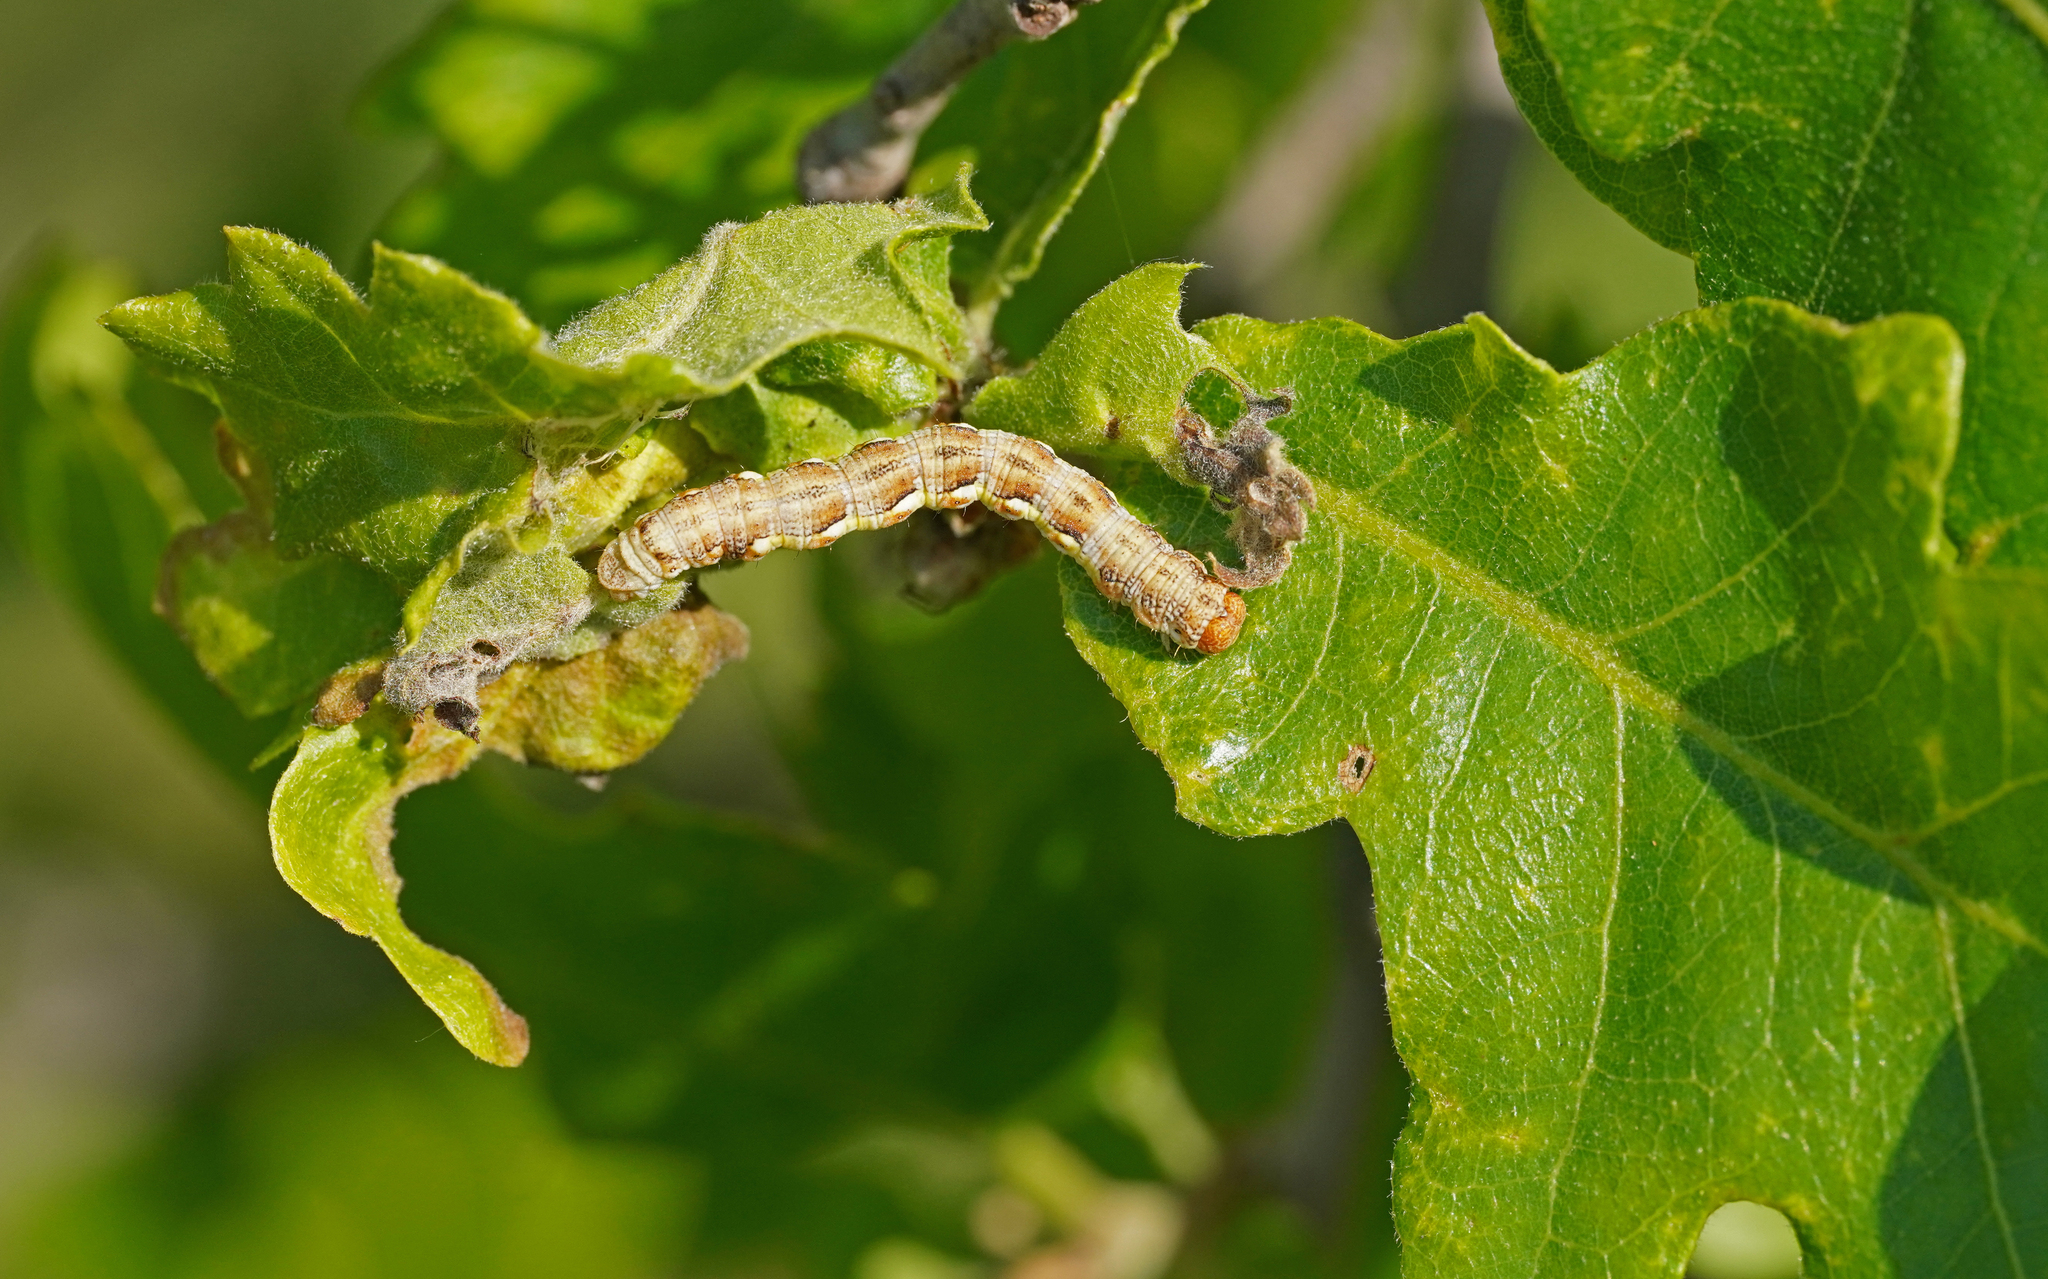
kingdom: Animalia
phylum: Arthropoda
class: Insecta
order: Lepidoptera
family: Geometridae
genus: Erannis
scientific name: Erannis defoliaria
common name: Mottled umber
